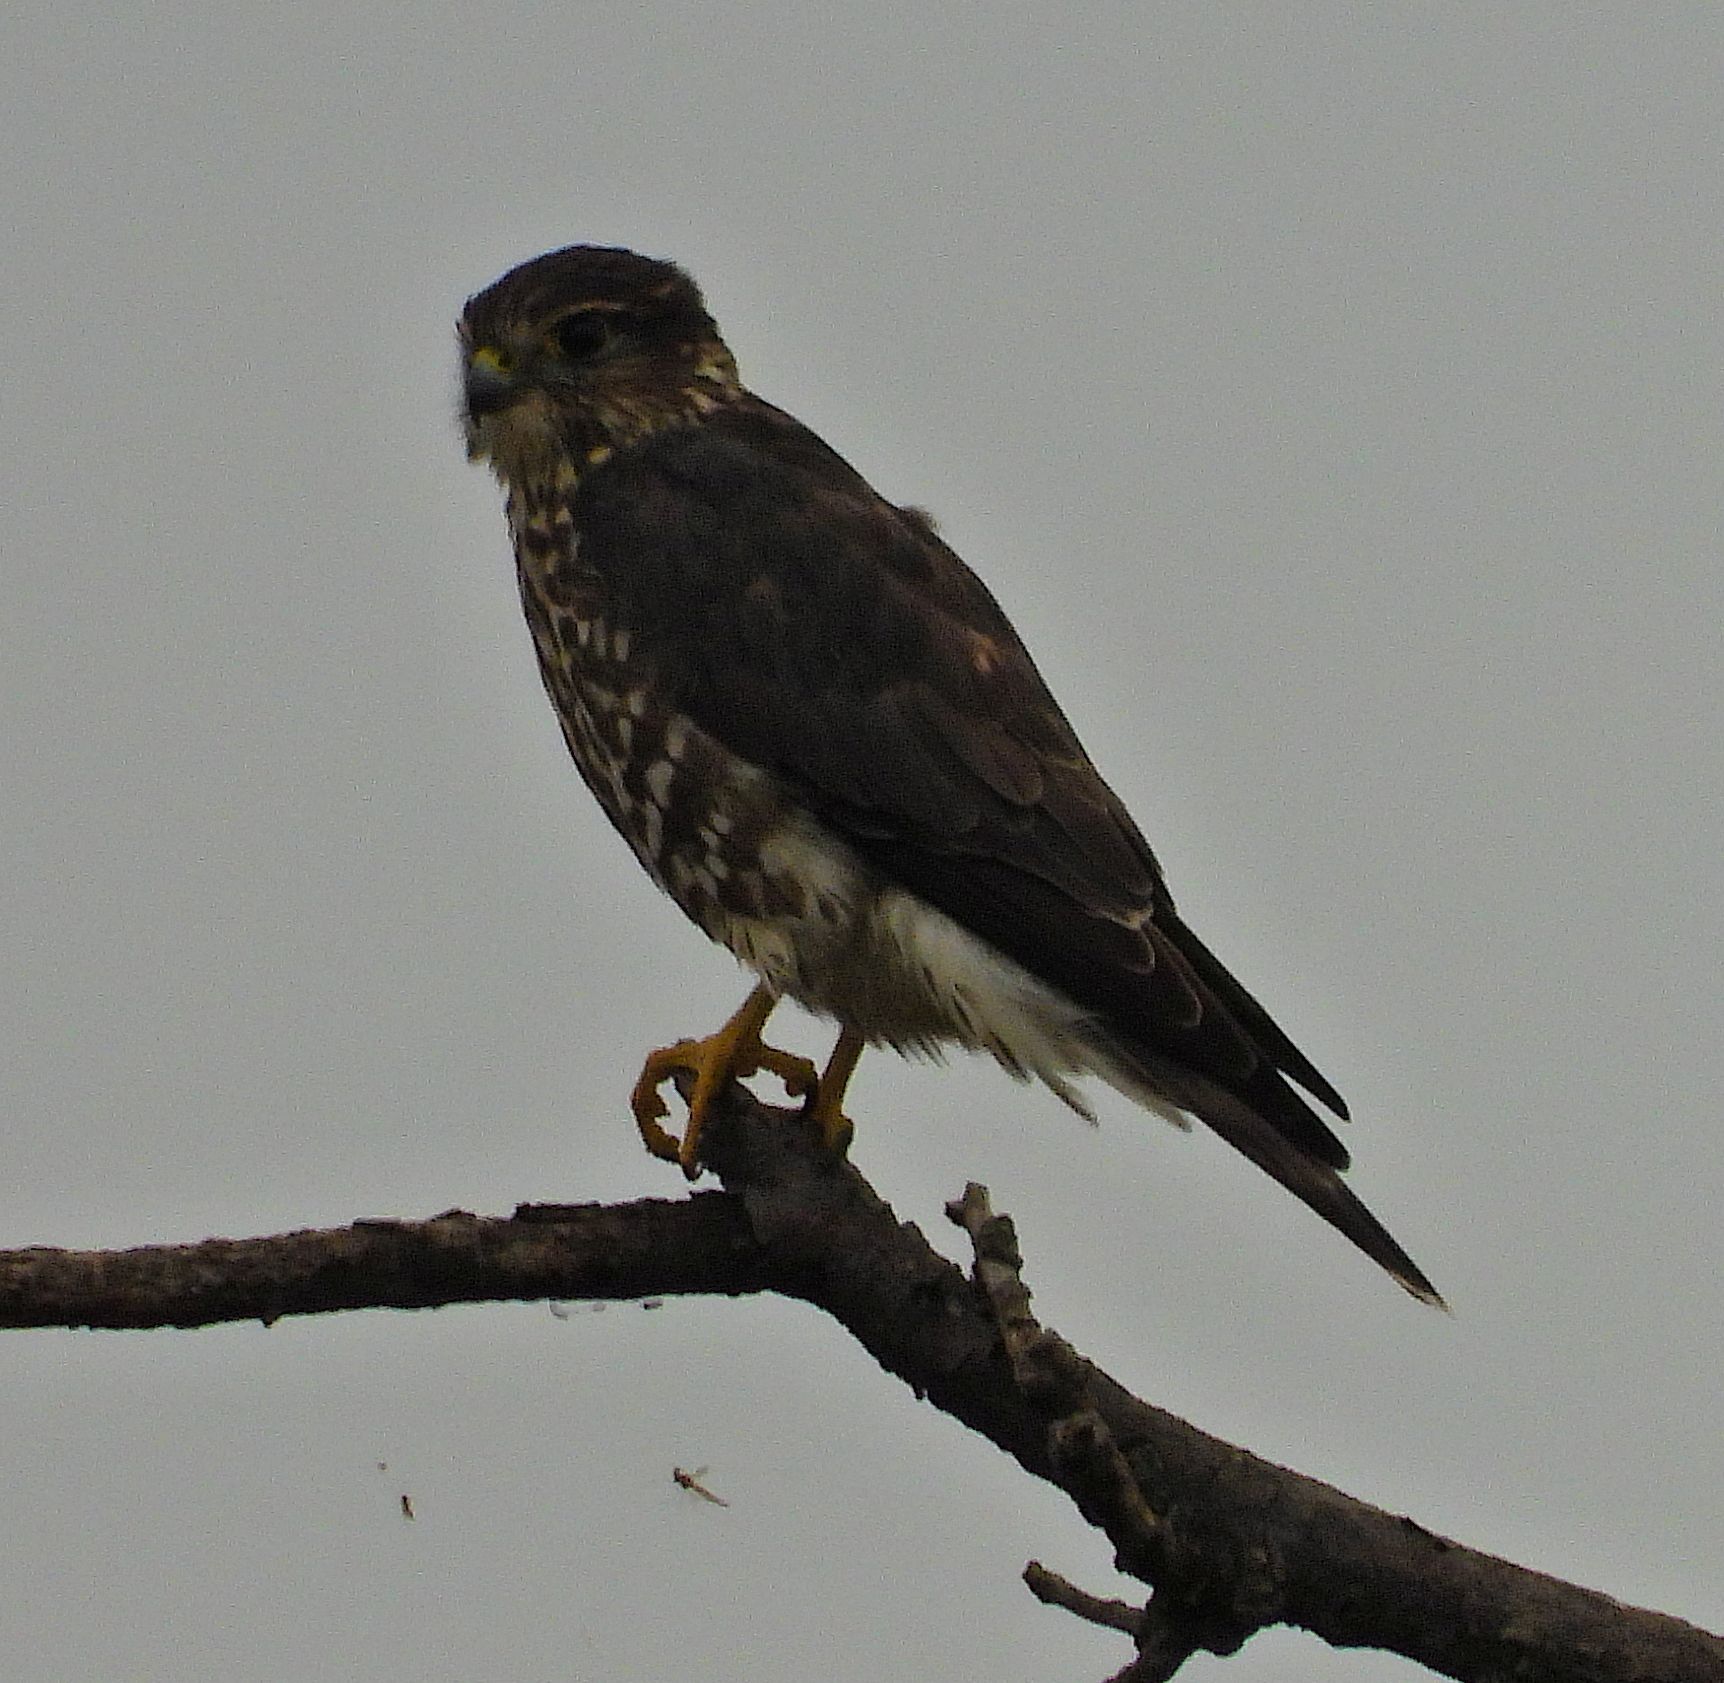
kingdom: Animalia
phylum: Chordata
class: Aves
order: Falconiformes
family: Falconidae
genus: Falco
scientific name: Falco columbarius
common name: Merlin
